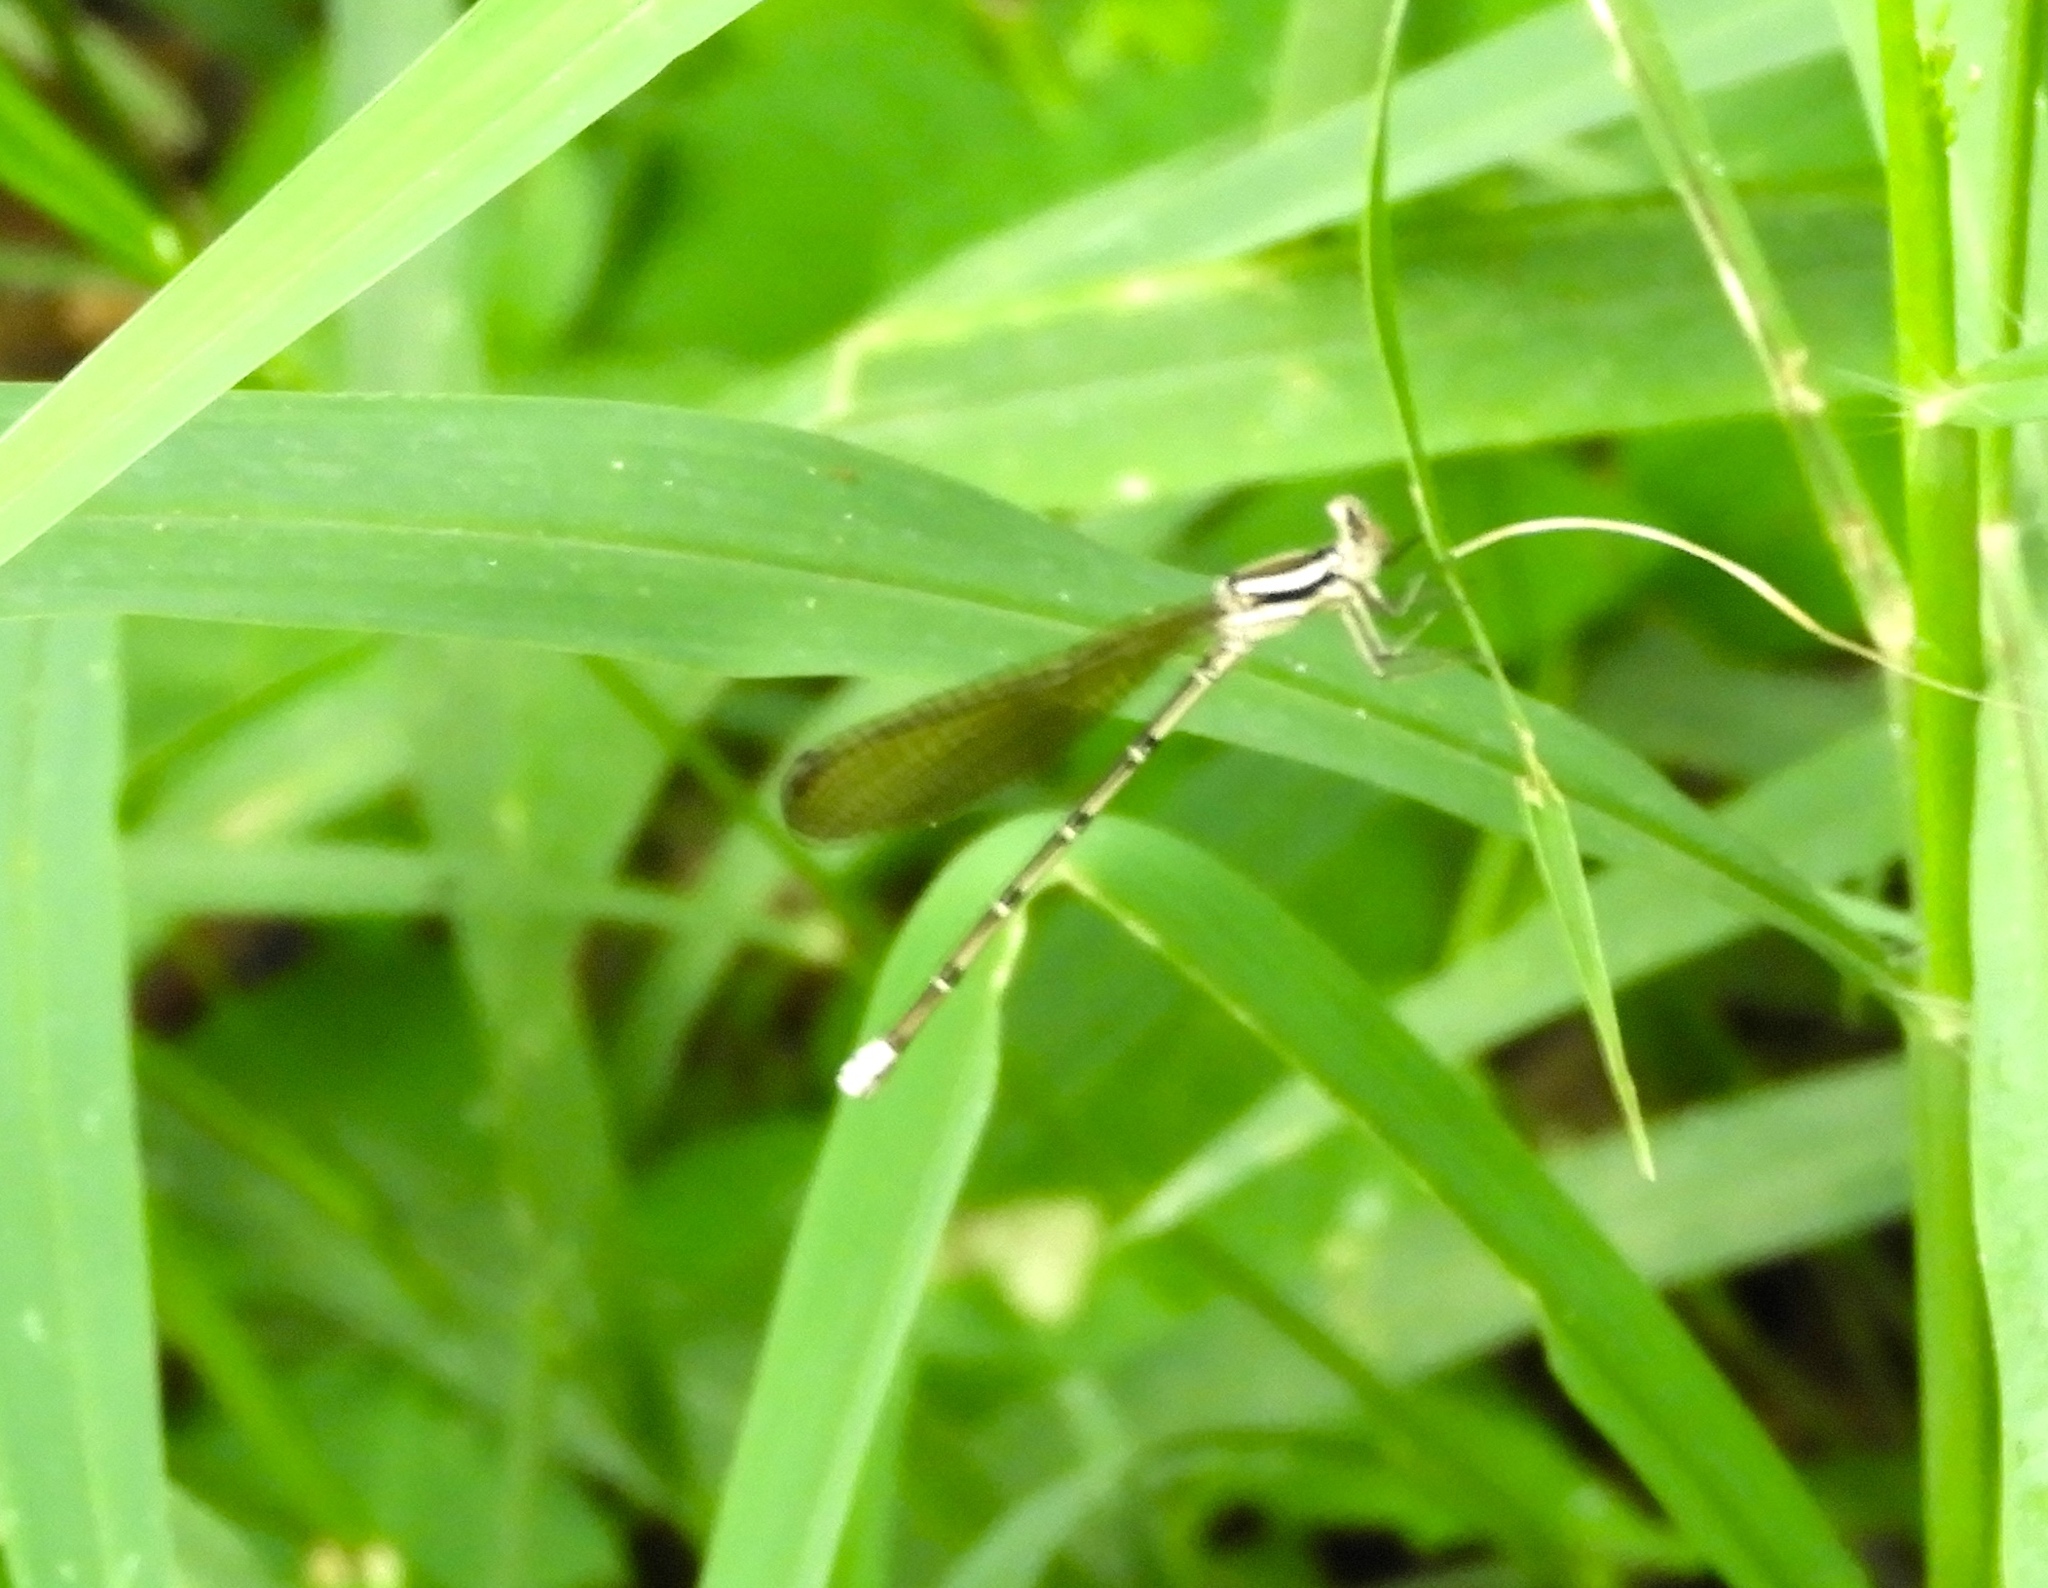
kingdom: Animalia
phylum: Arthropoda
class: Insecta
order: Odonata
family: Coenagrionidae
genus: Argia
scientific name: Argia
